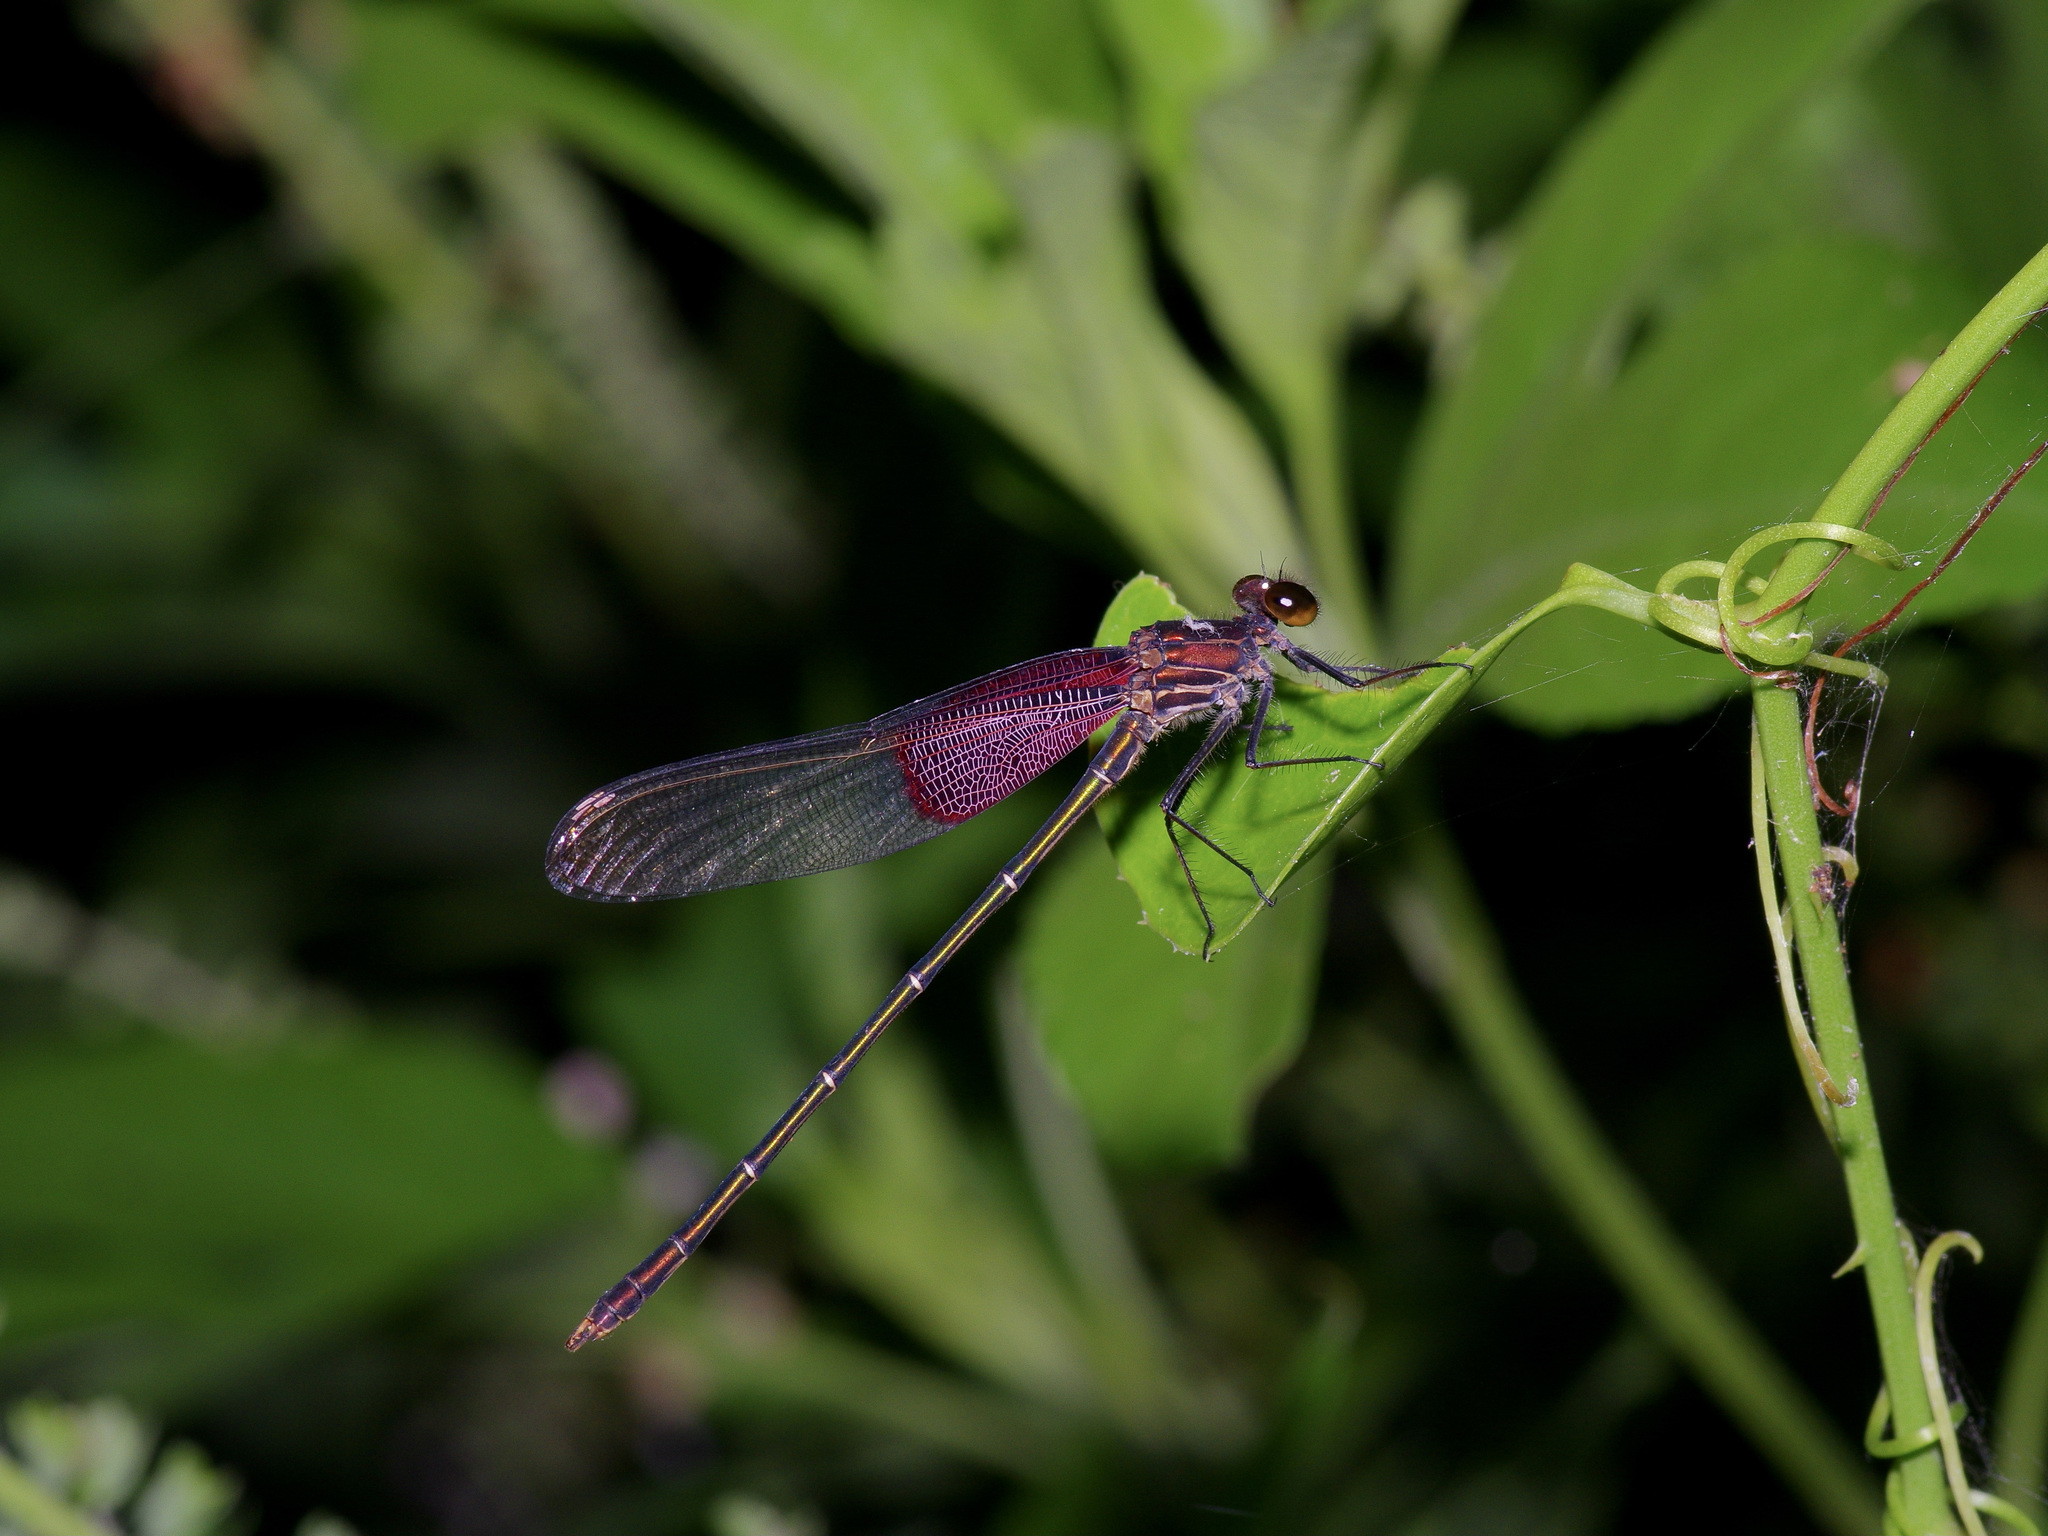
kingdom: Animalia
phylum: Arthropoda
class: Insecta
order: Odonata
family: Calopterygidae
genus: Hetaerina
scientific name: Hetaerina americana
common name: American rubyspot
